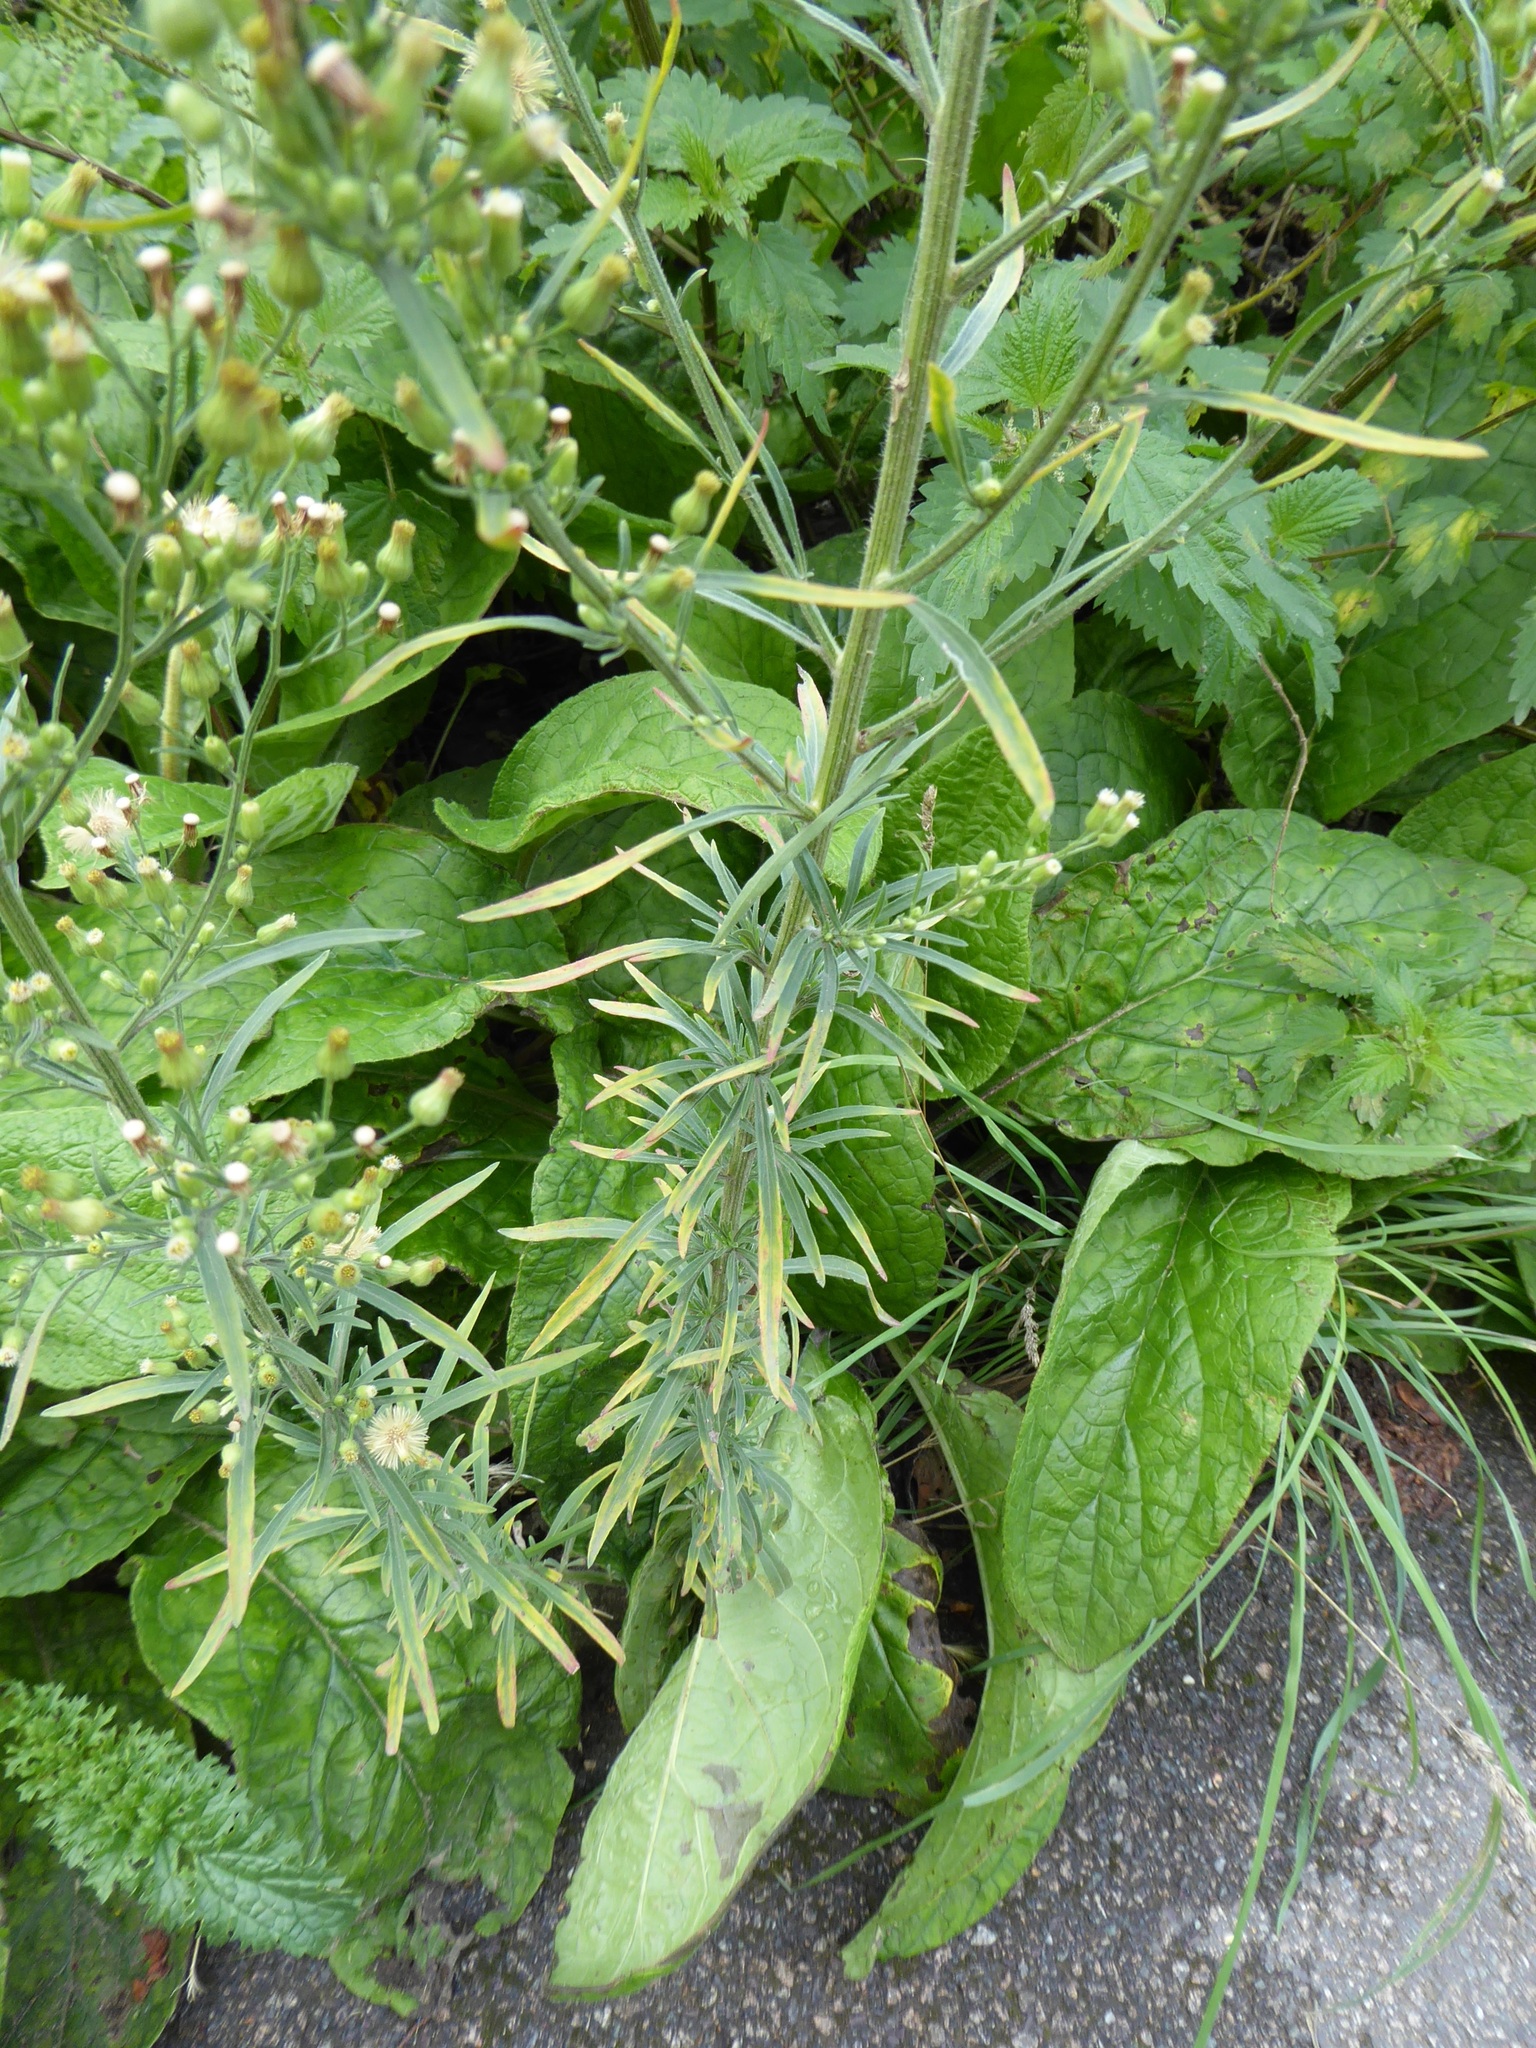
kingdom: Plantae
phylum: Tracheophyta
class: Magnoliopsida
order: Asterales
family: Asteraceae
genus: Erigeron
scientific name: Erigeron sumatrensis
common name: Daisy
